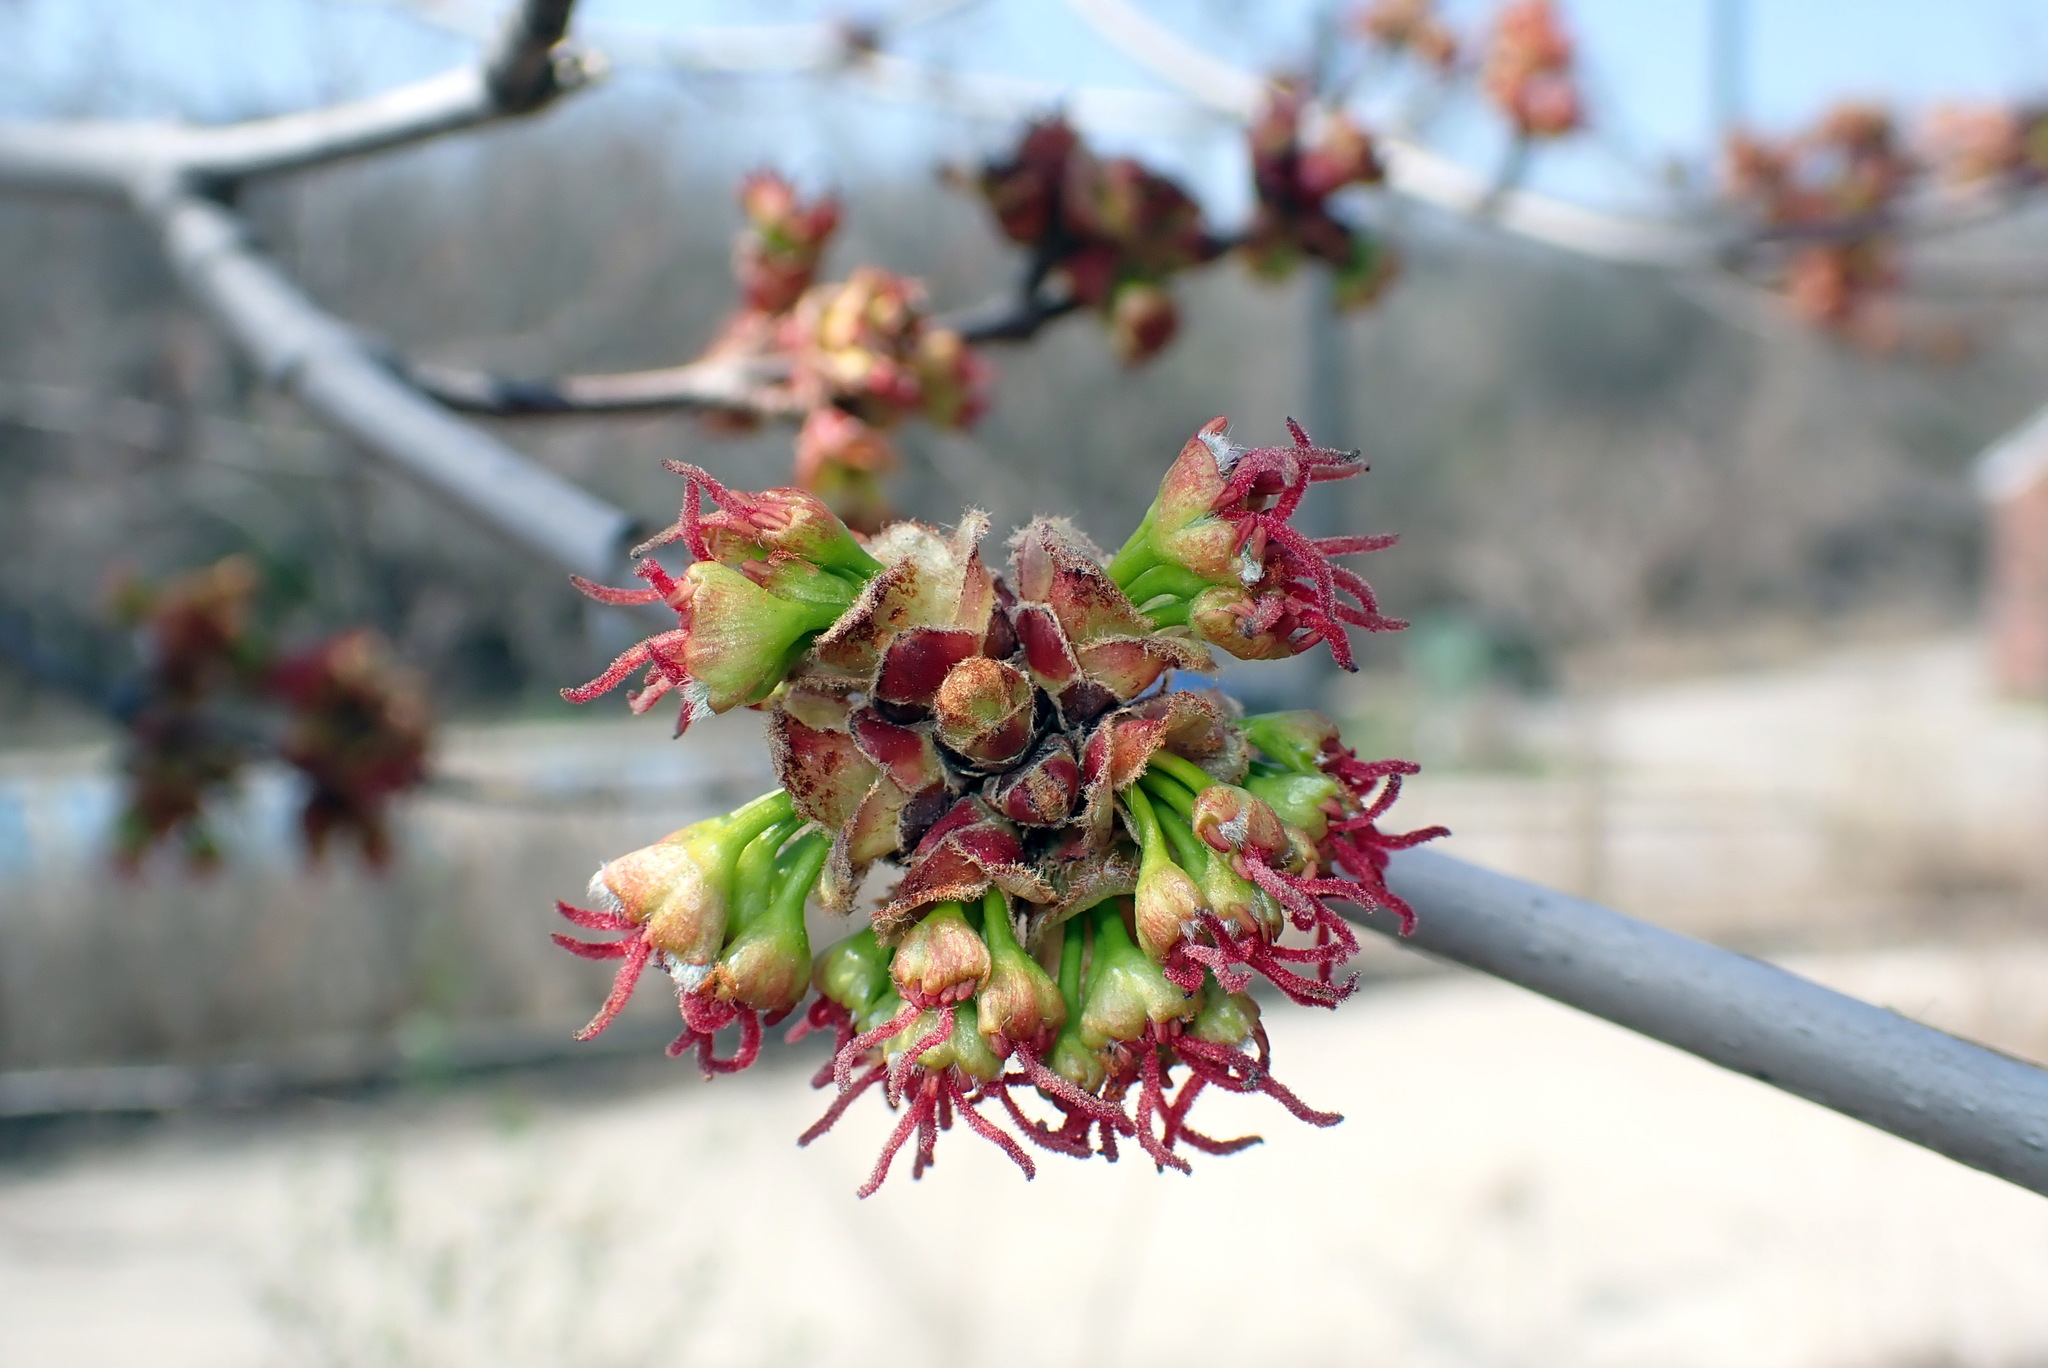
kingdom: Plantae
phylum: Tracheophyta
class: Magnoliopsida
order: Sapindales
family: Sapindaceae
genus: Acer
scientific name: Acer rubrum
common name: Red maple
